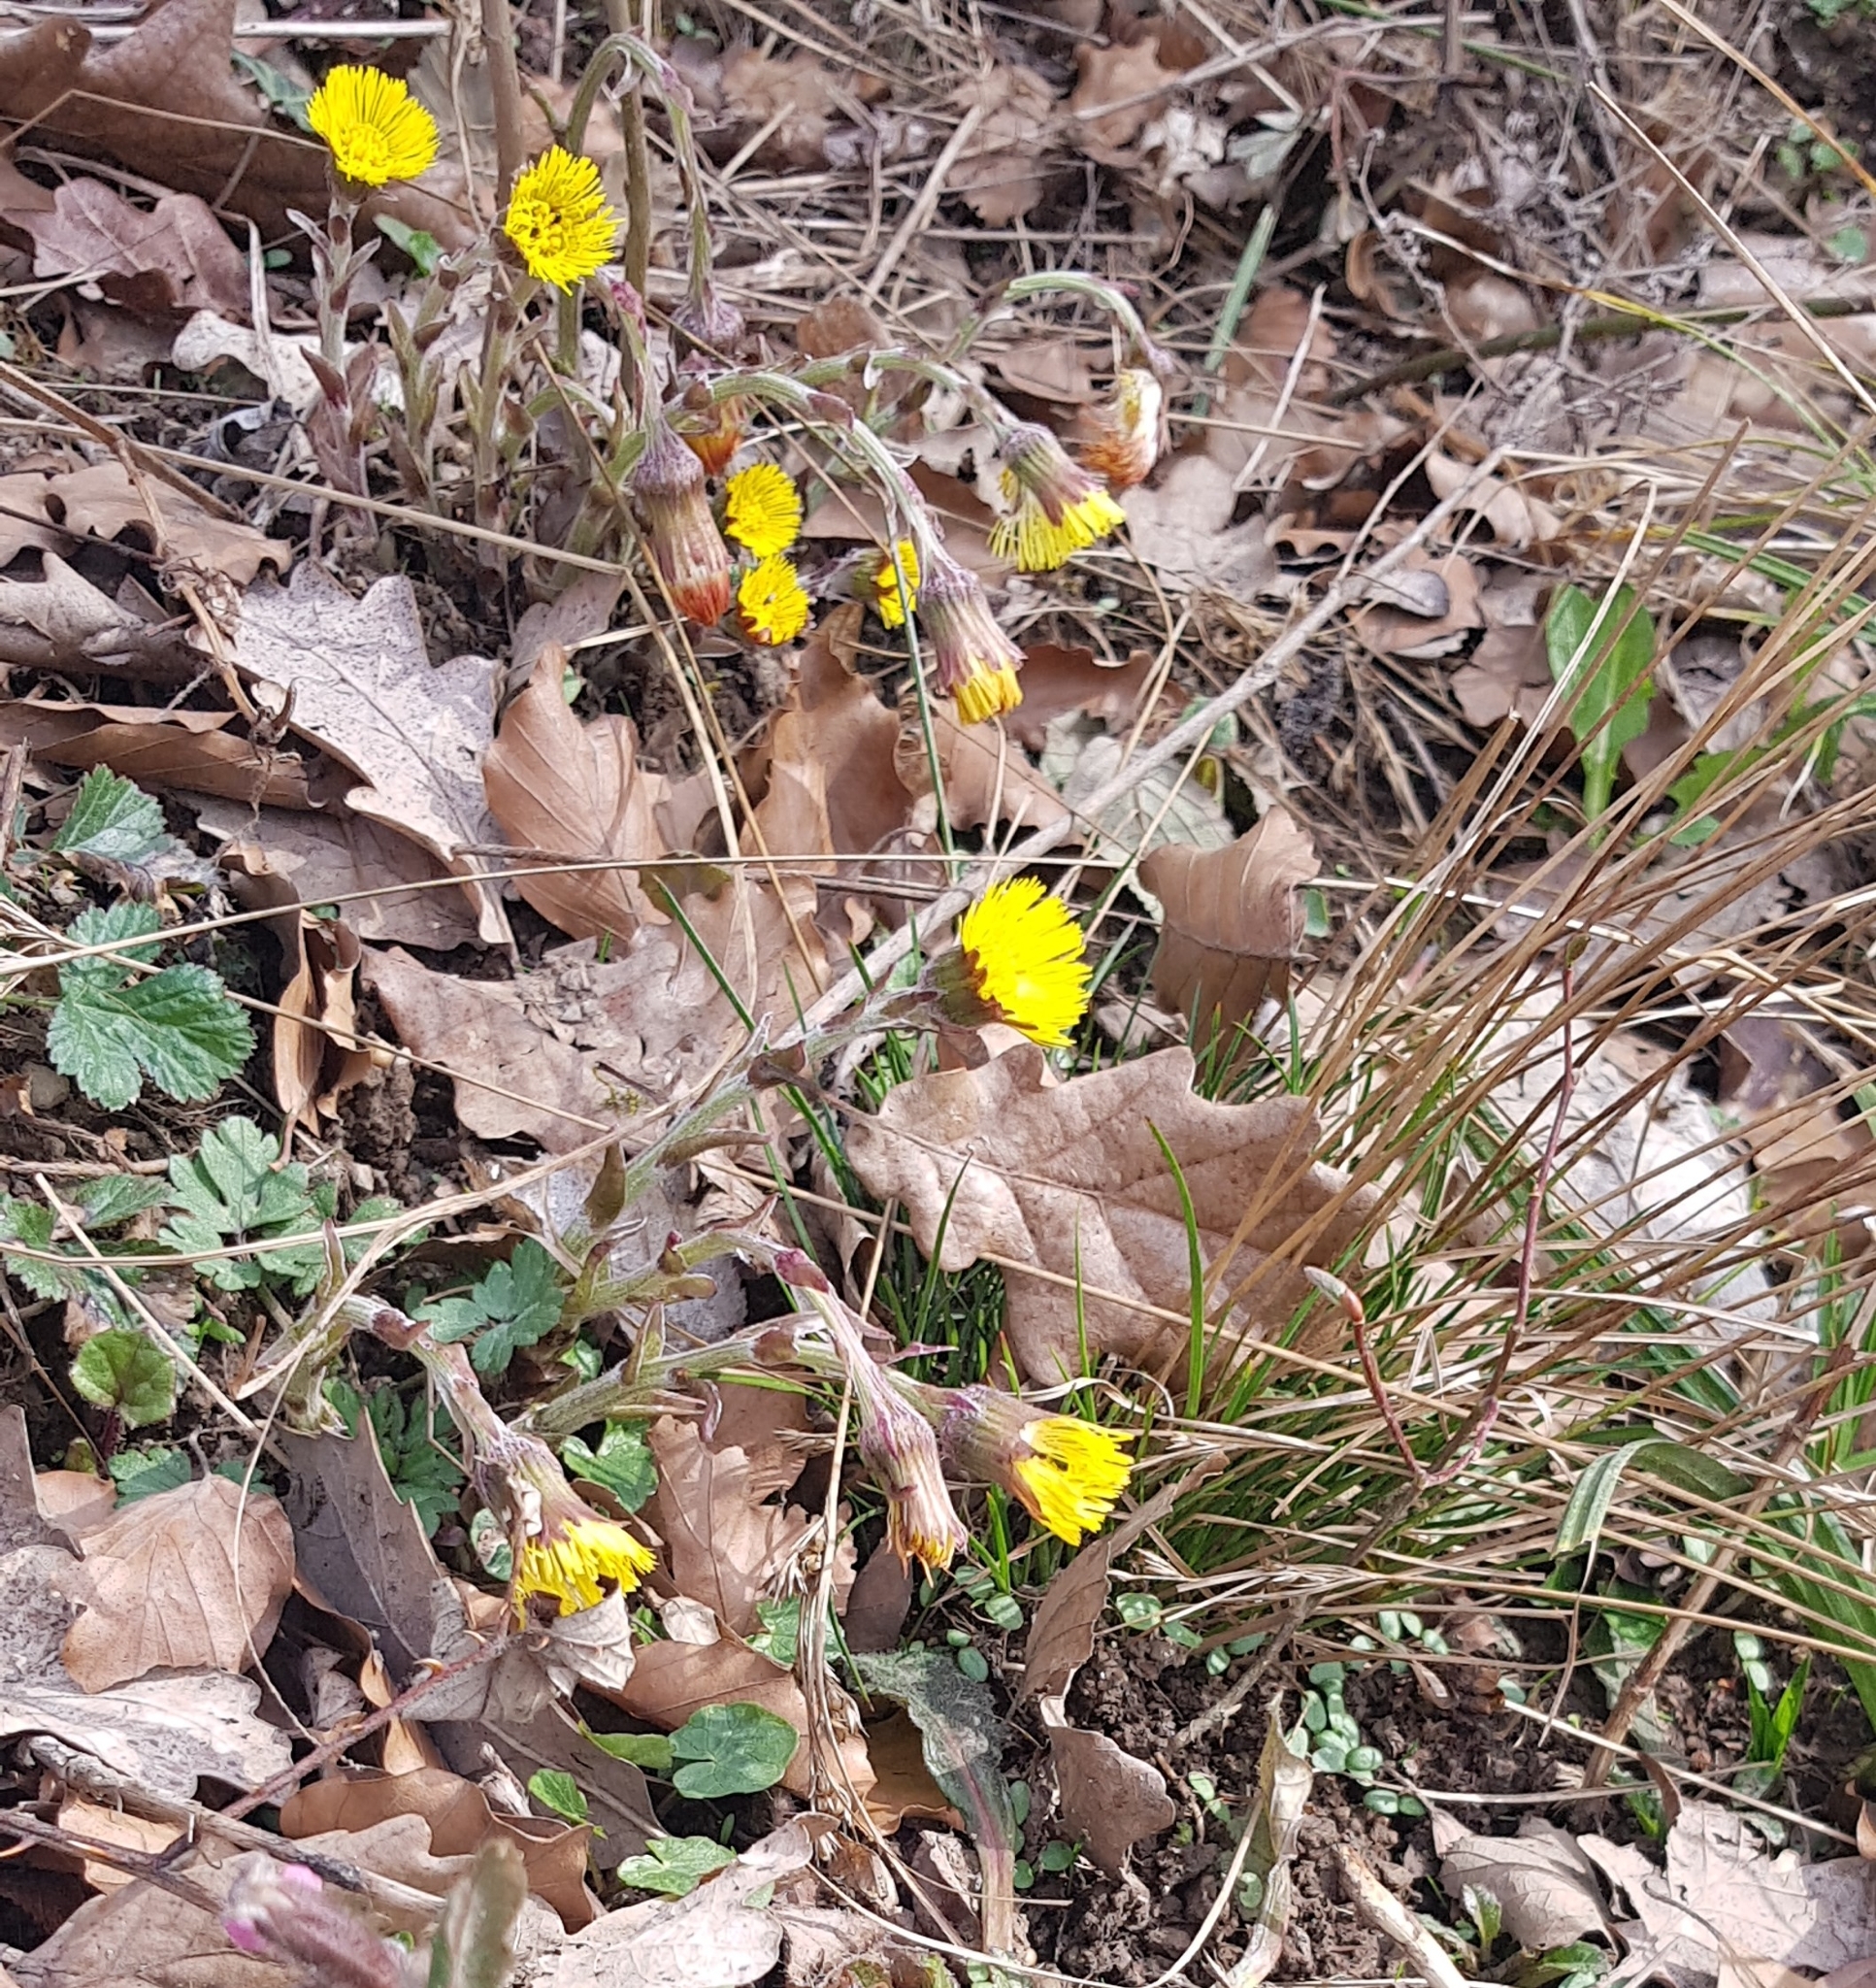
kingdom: Plantae
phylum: Tracheophyta
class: Magnoliopsida
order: Asterales
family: Asteraceae
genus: Tussilago
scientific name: Tussilago farfara
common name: Coltsfoot
